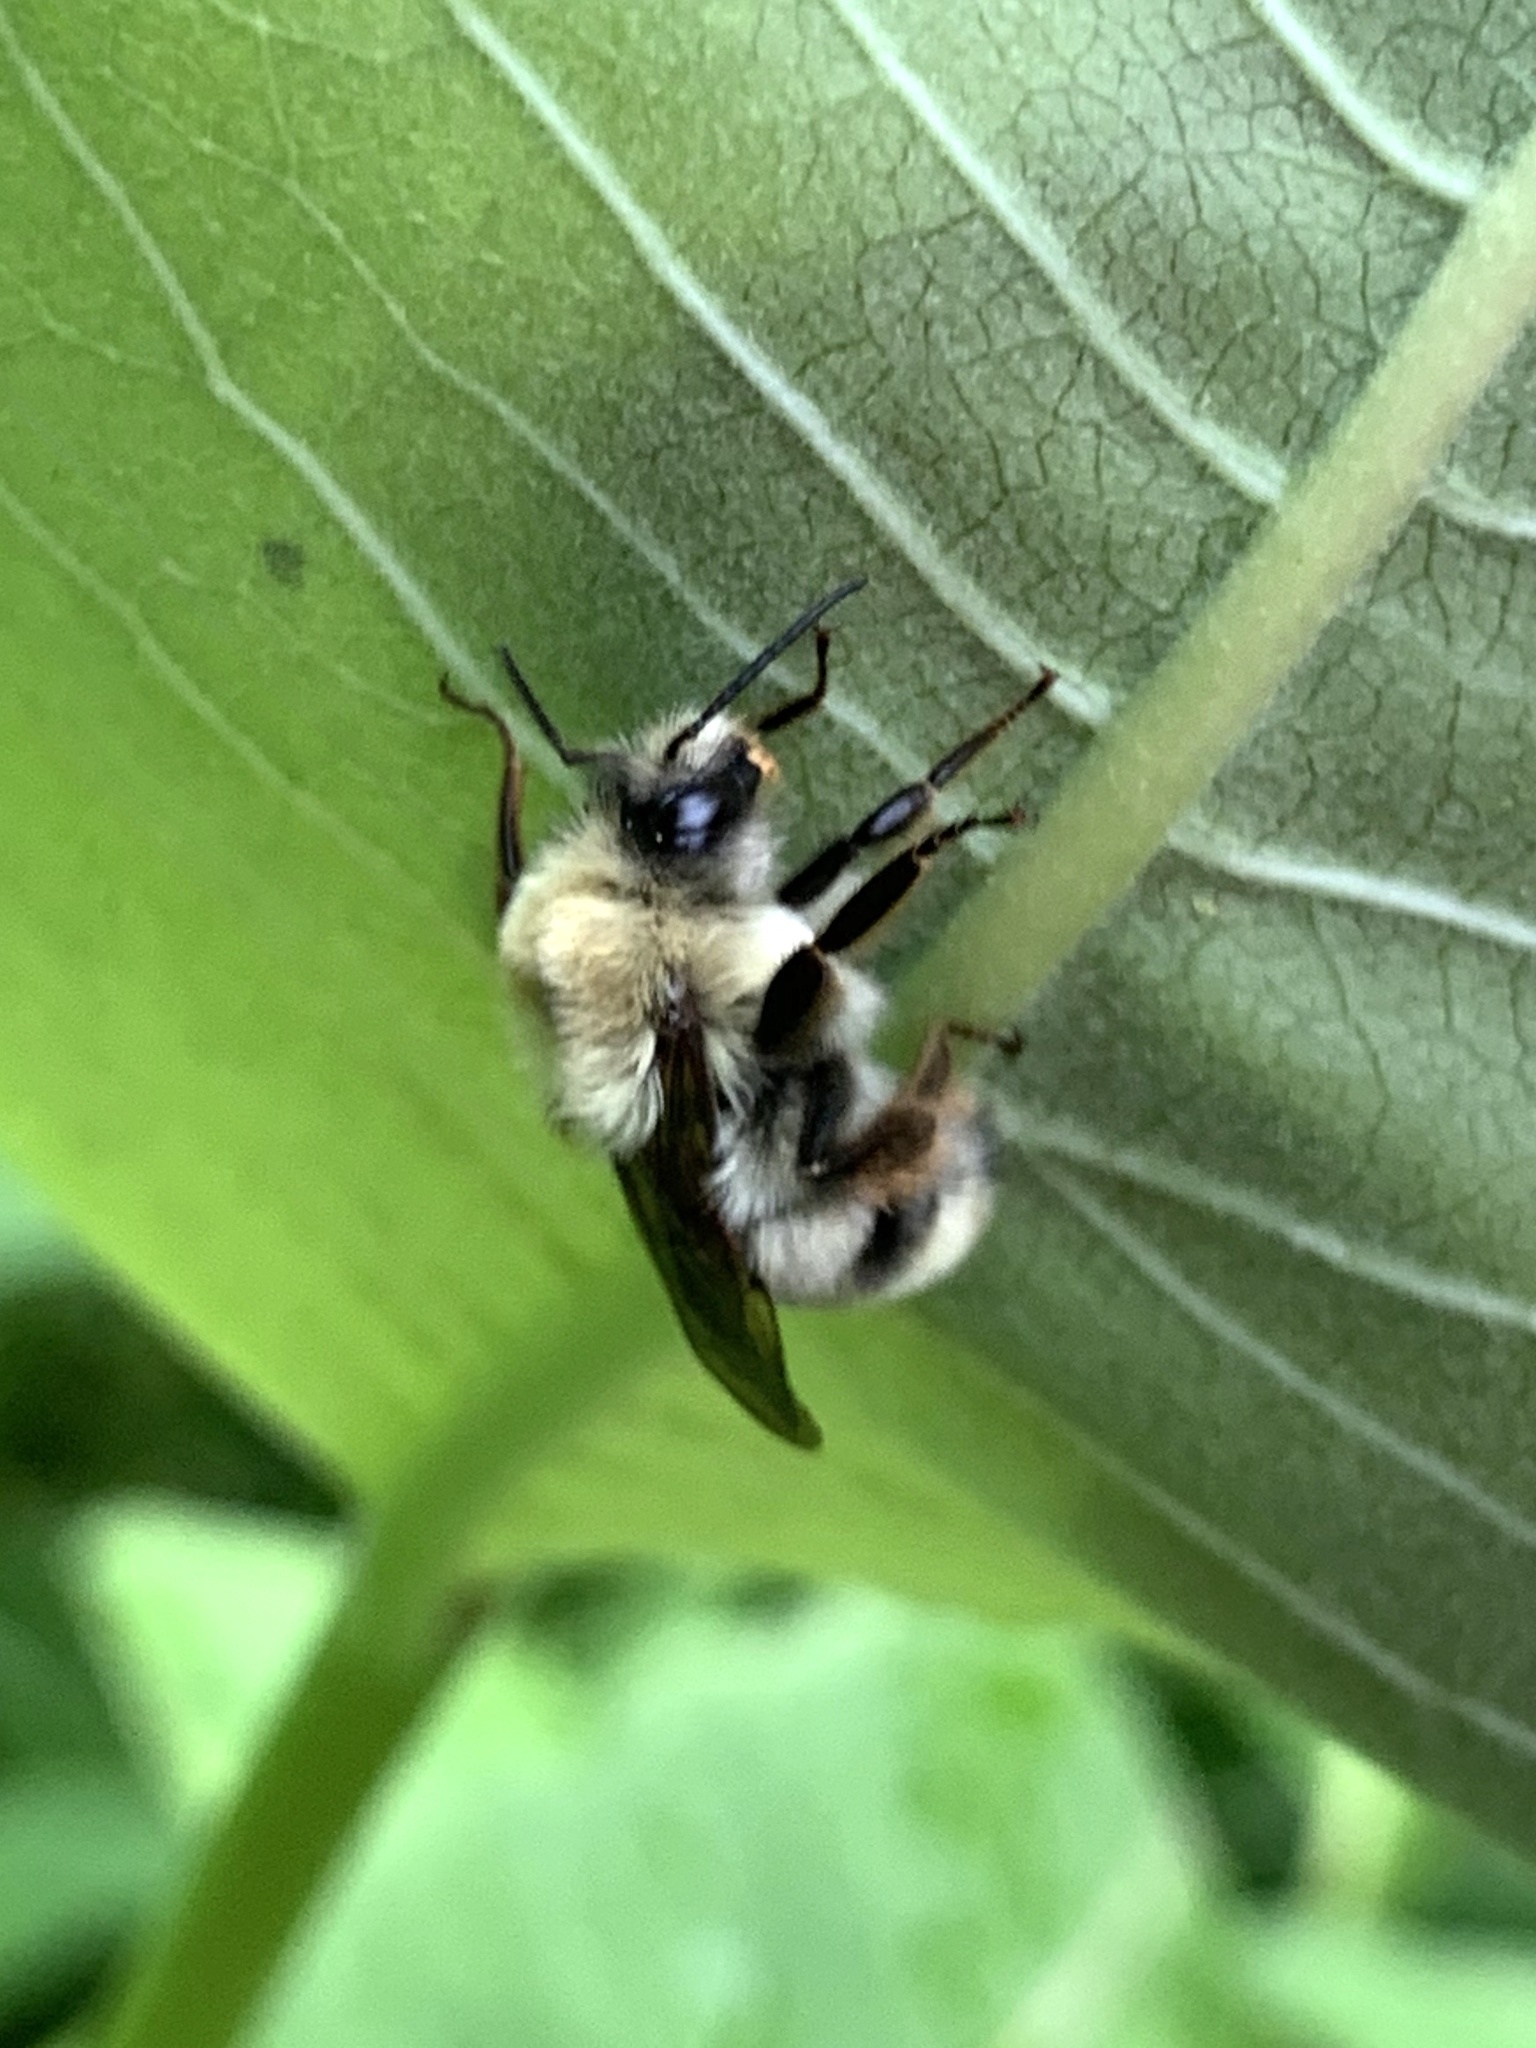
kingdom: Animalia
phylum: Arthropoda
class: Insecta
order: Hymenoptera
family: Apidae
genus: Bombus
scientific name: Bombus bimaculatus
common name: Two-spotted bumble bee
